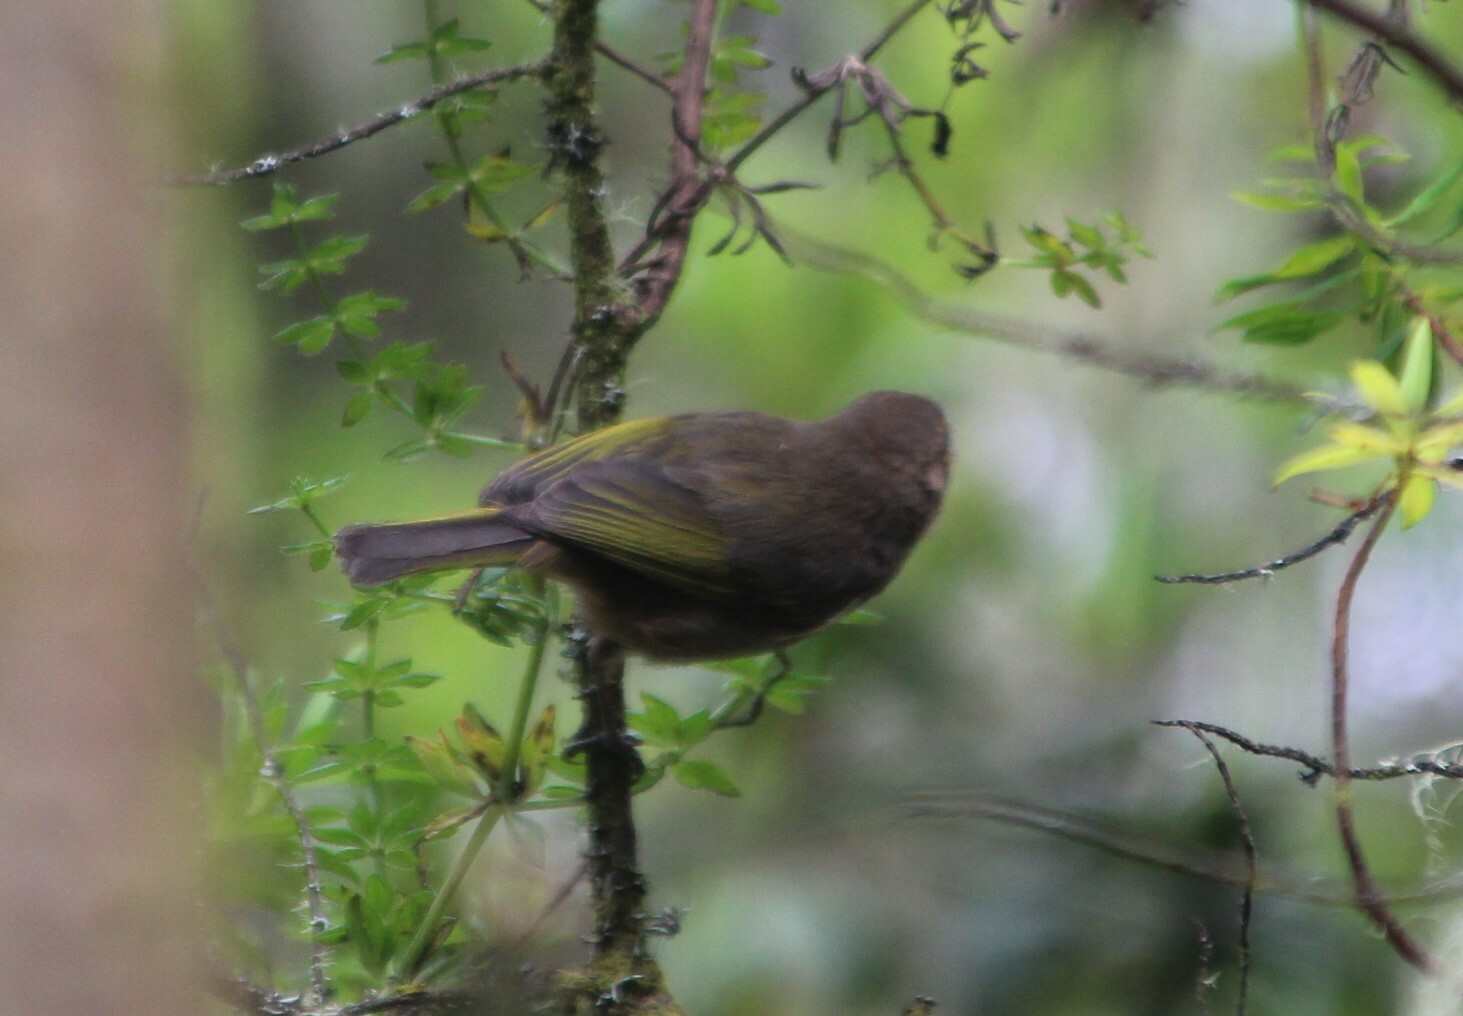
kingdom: Animalia
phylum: Chordata
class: Aves
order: Passeriformes
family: Phylloscopidae
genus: Phylloscopus
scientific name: Phylloscopus umbrovirens
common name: Brown woodland warbler
